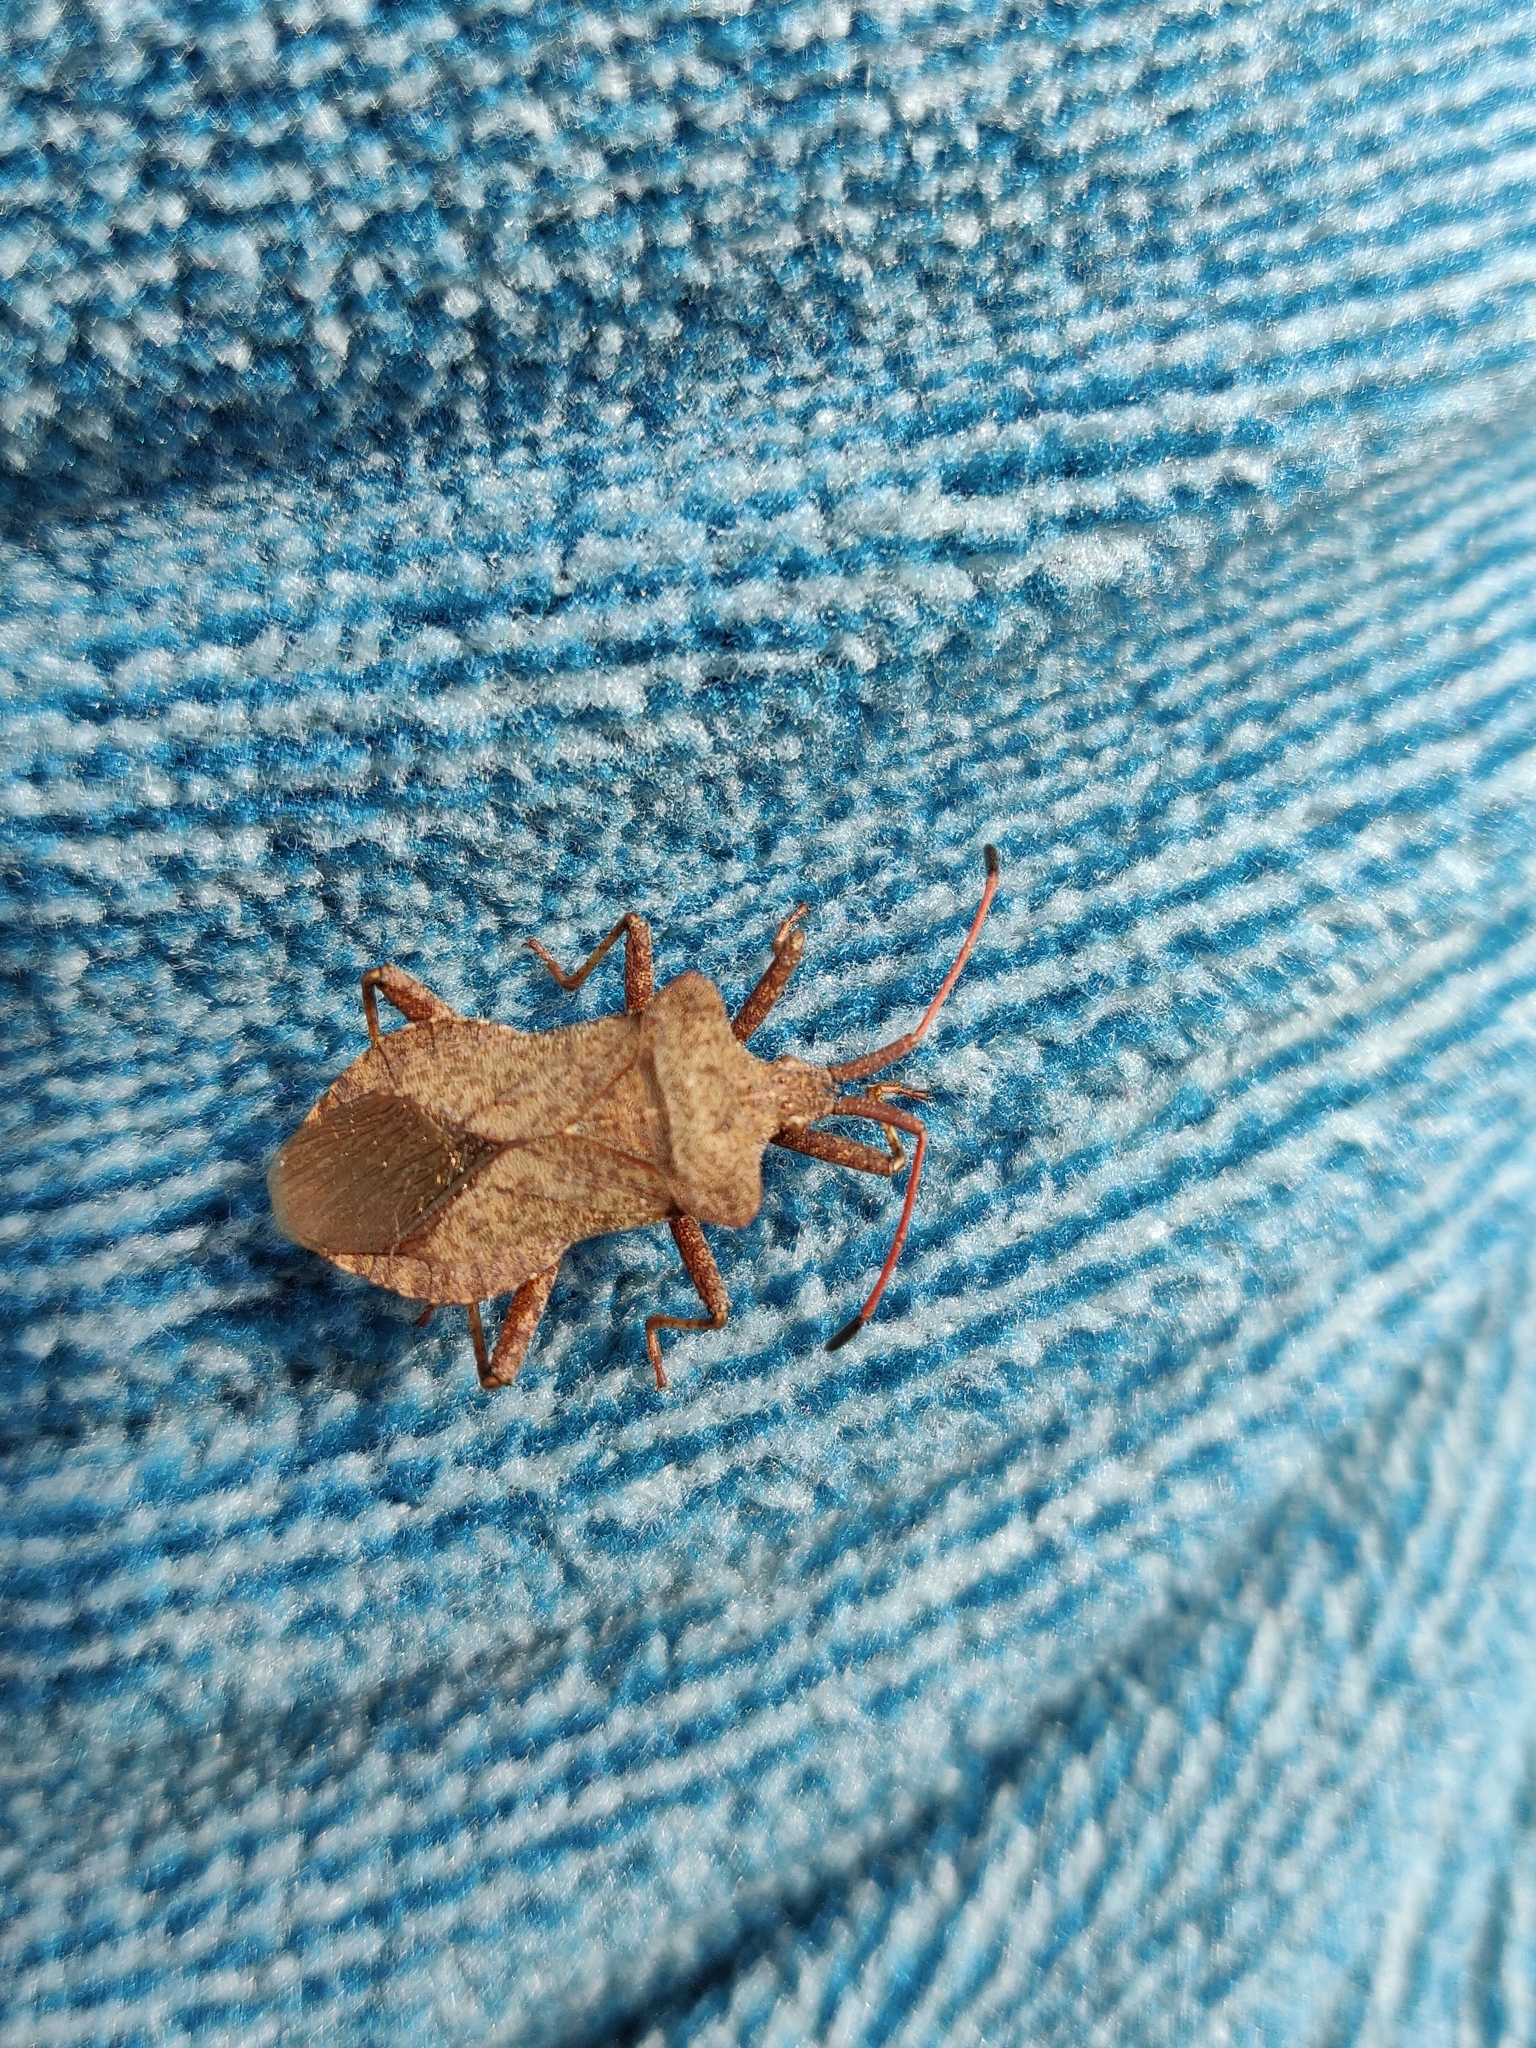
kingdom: Animalia
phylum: Arthropoda
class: Insecta
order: Hemiptera
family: Coreidae
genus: Coreus
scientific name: Coreus marginatus
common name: Dock bug
